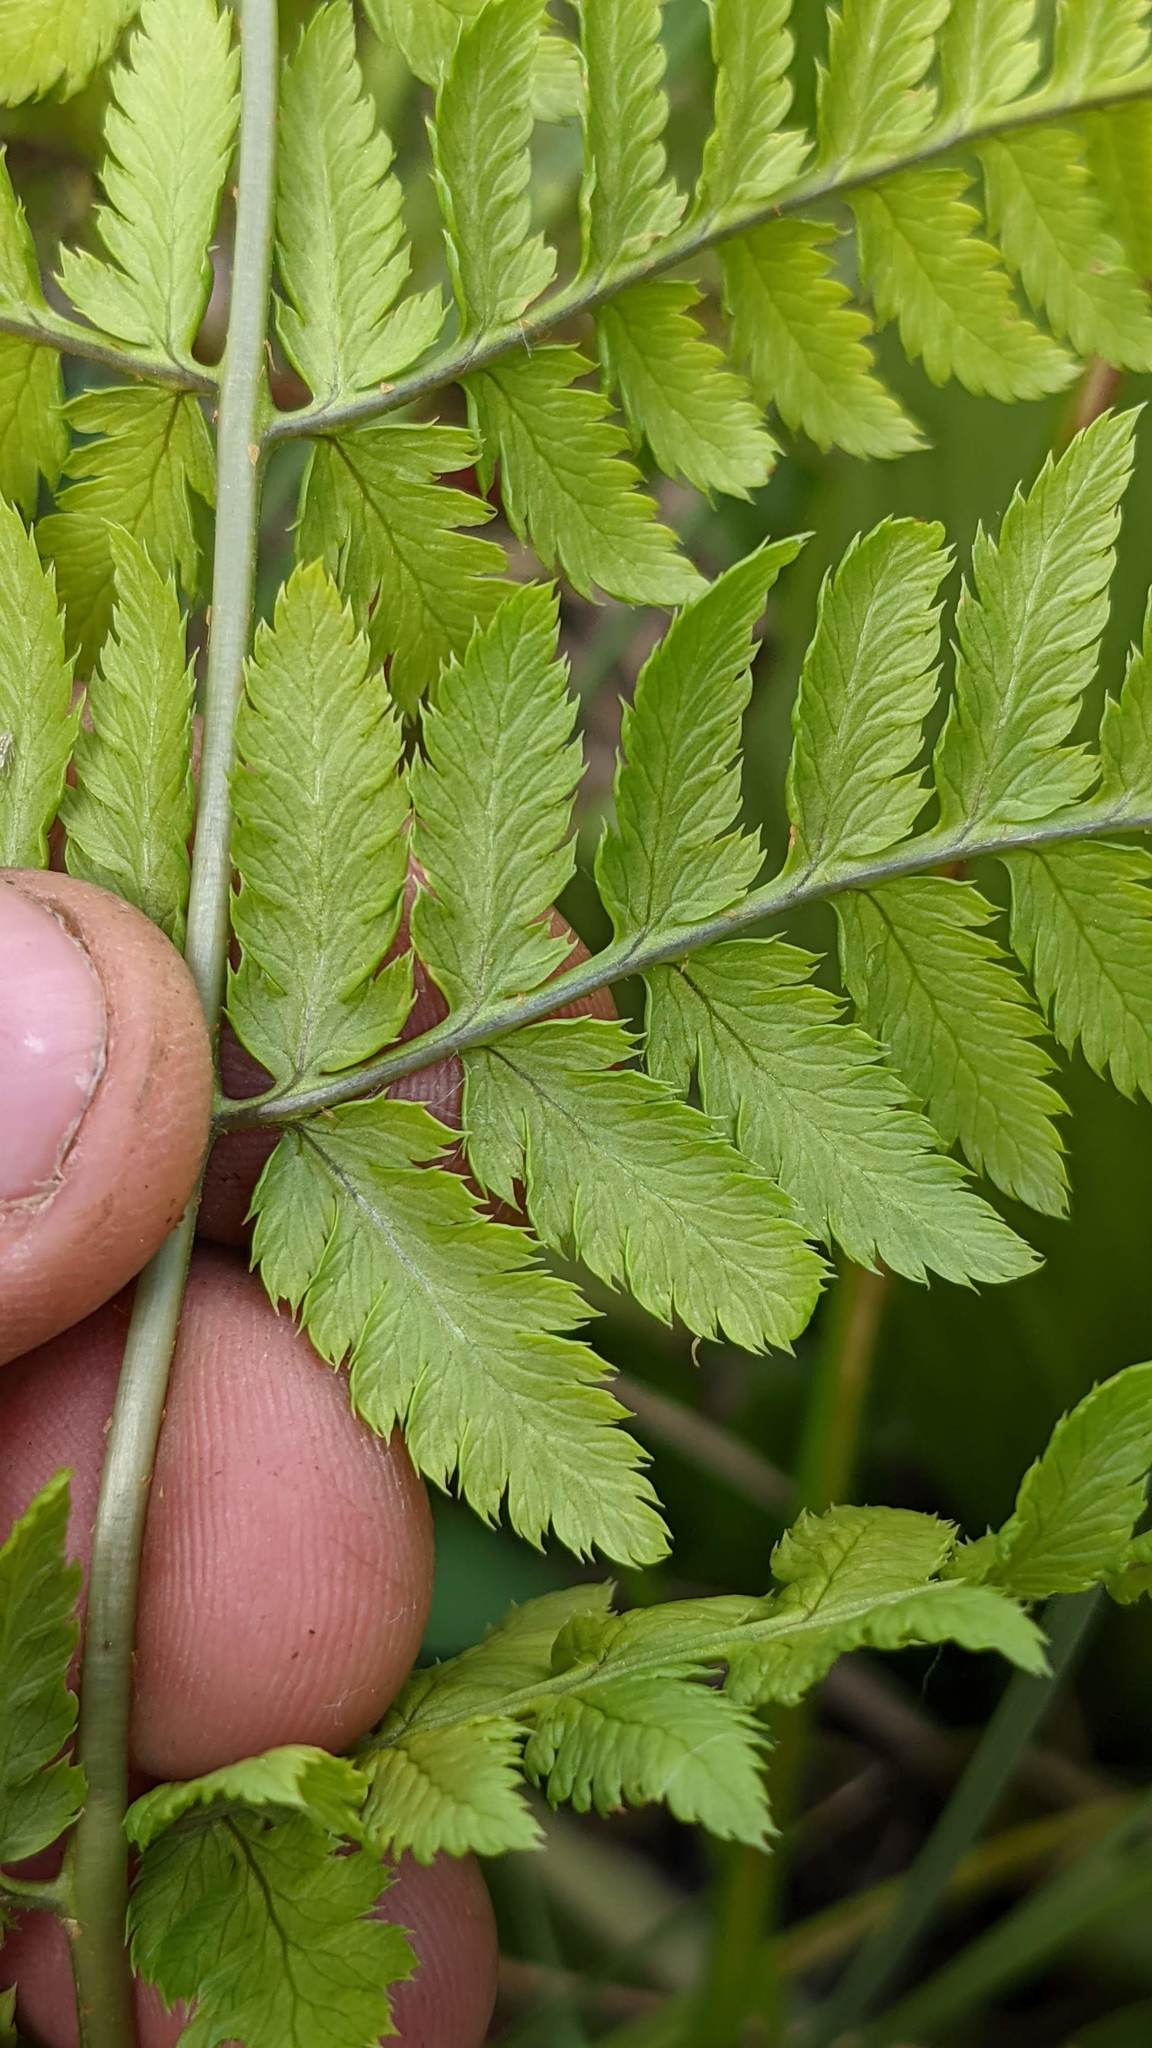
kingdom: Plantae
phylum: Tracheophyta
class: Polypodiopsida
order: Polypodiales
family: Dryopteridaceae
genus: Dryopteris
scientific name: Dryopteris carthusiana
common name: Narrow buckler-fern
